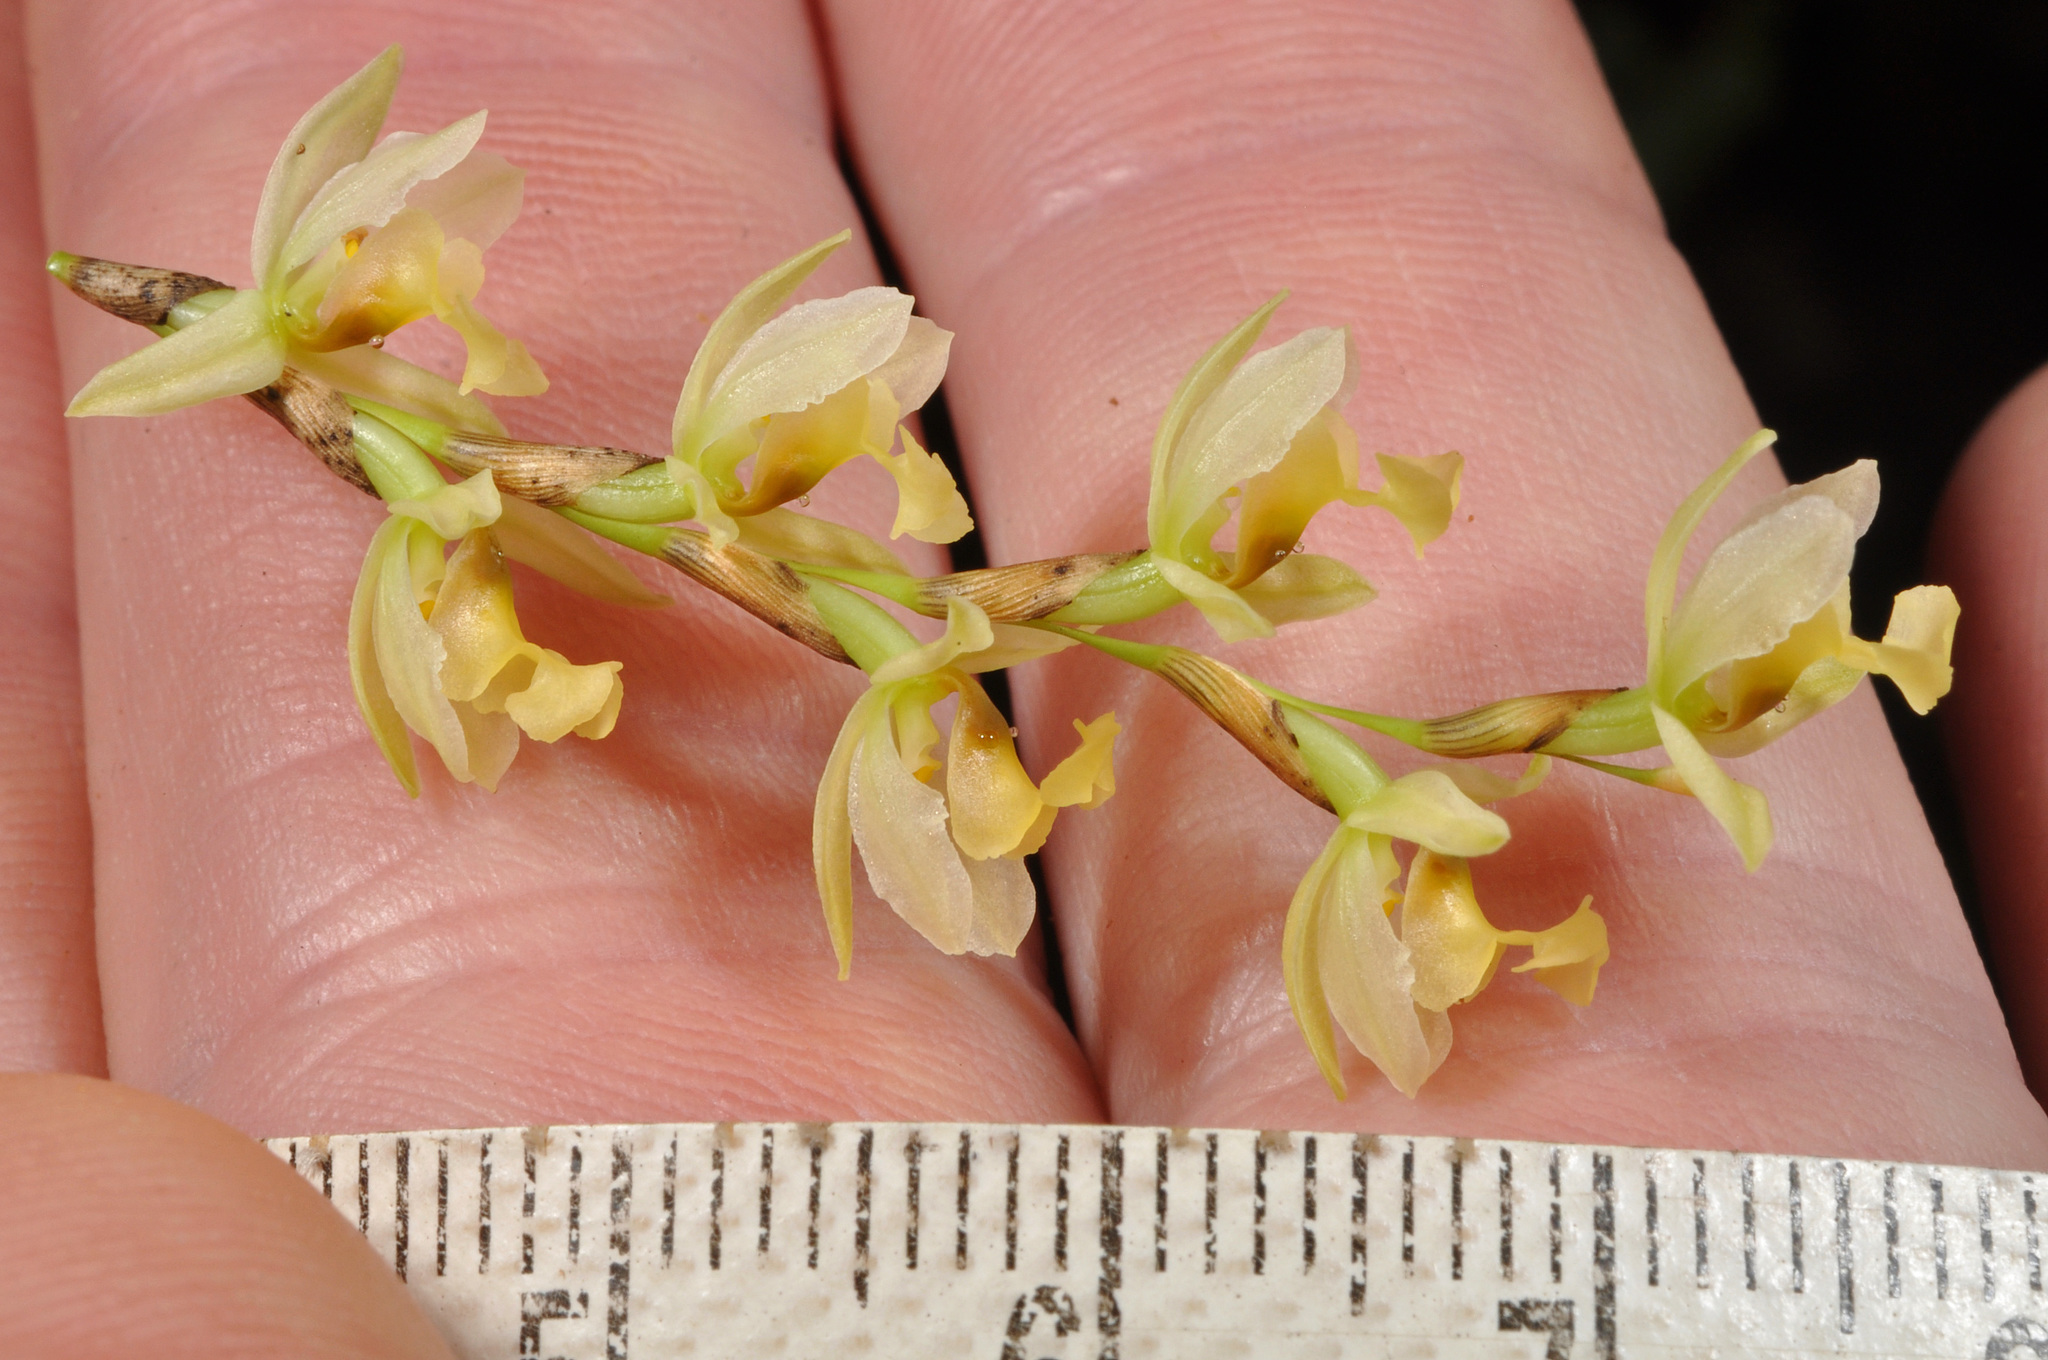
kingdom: Plantae
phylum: Tracheophyta
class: Liliopsida
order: Asparagales
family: Orchidaceae
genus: Earina
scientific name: Earina mucronata
